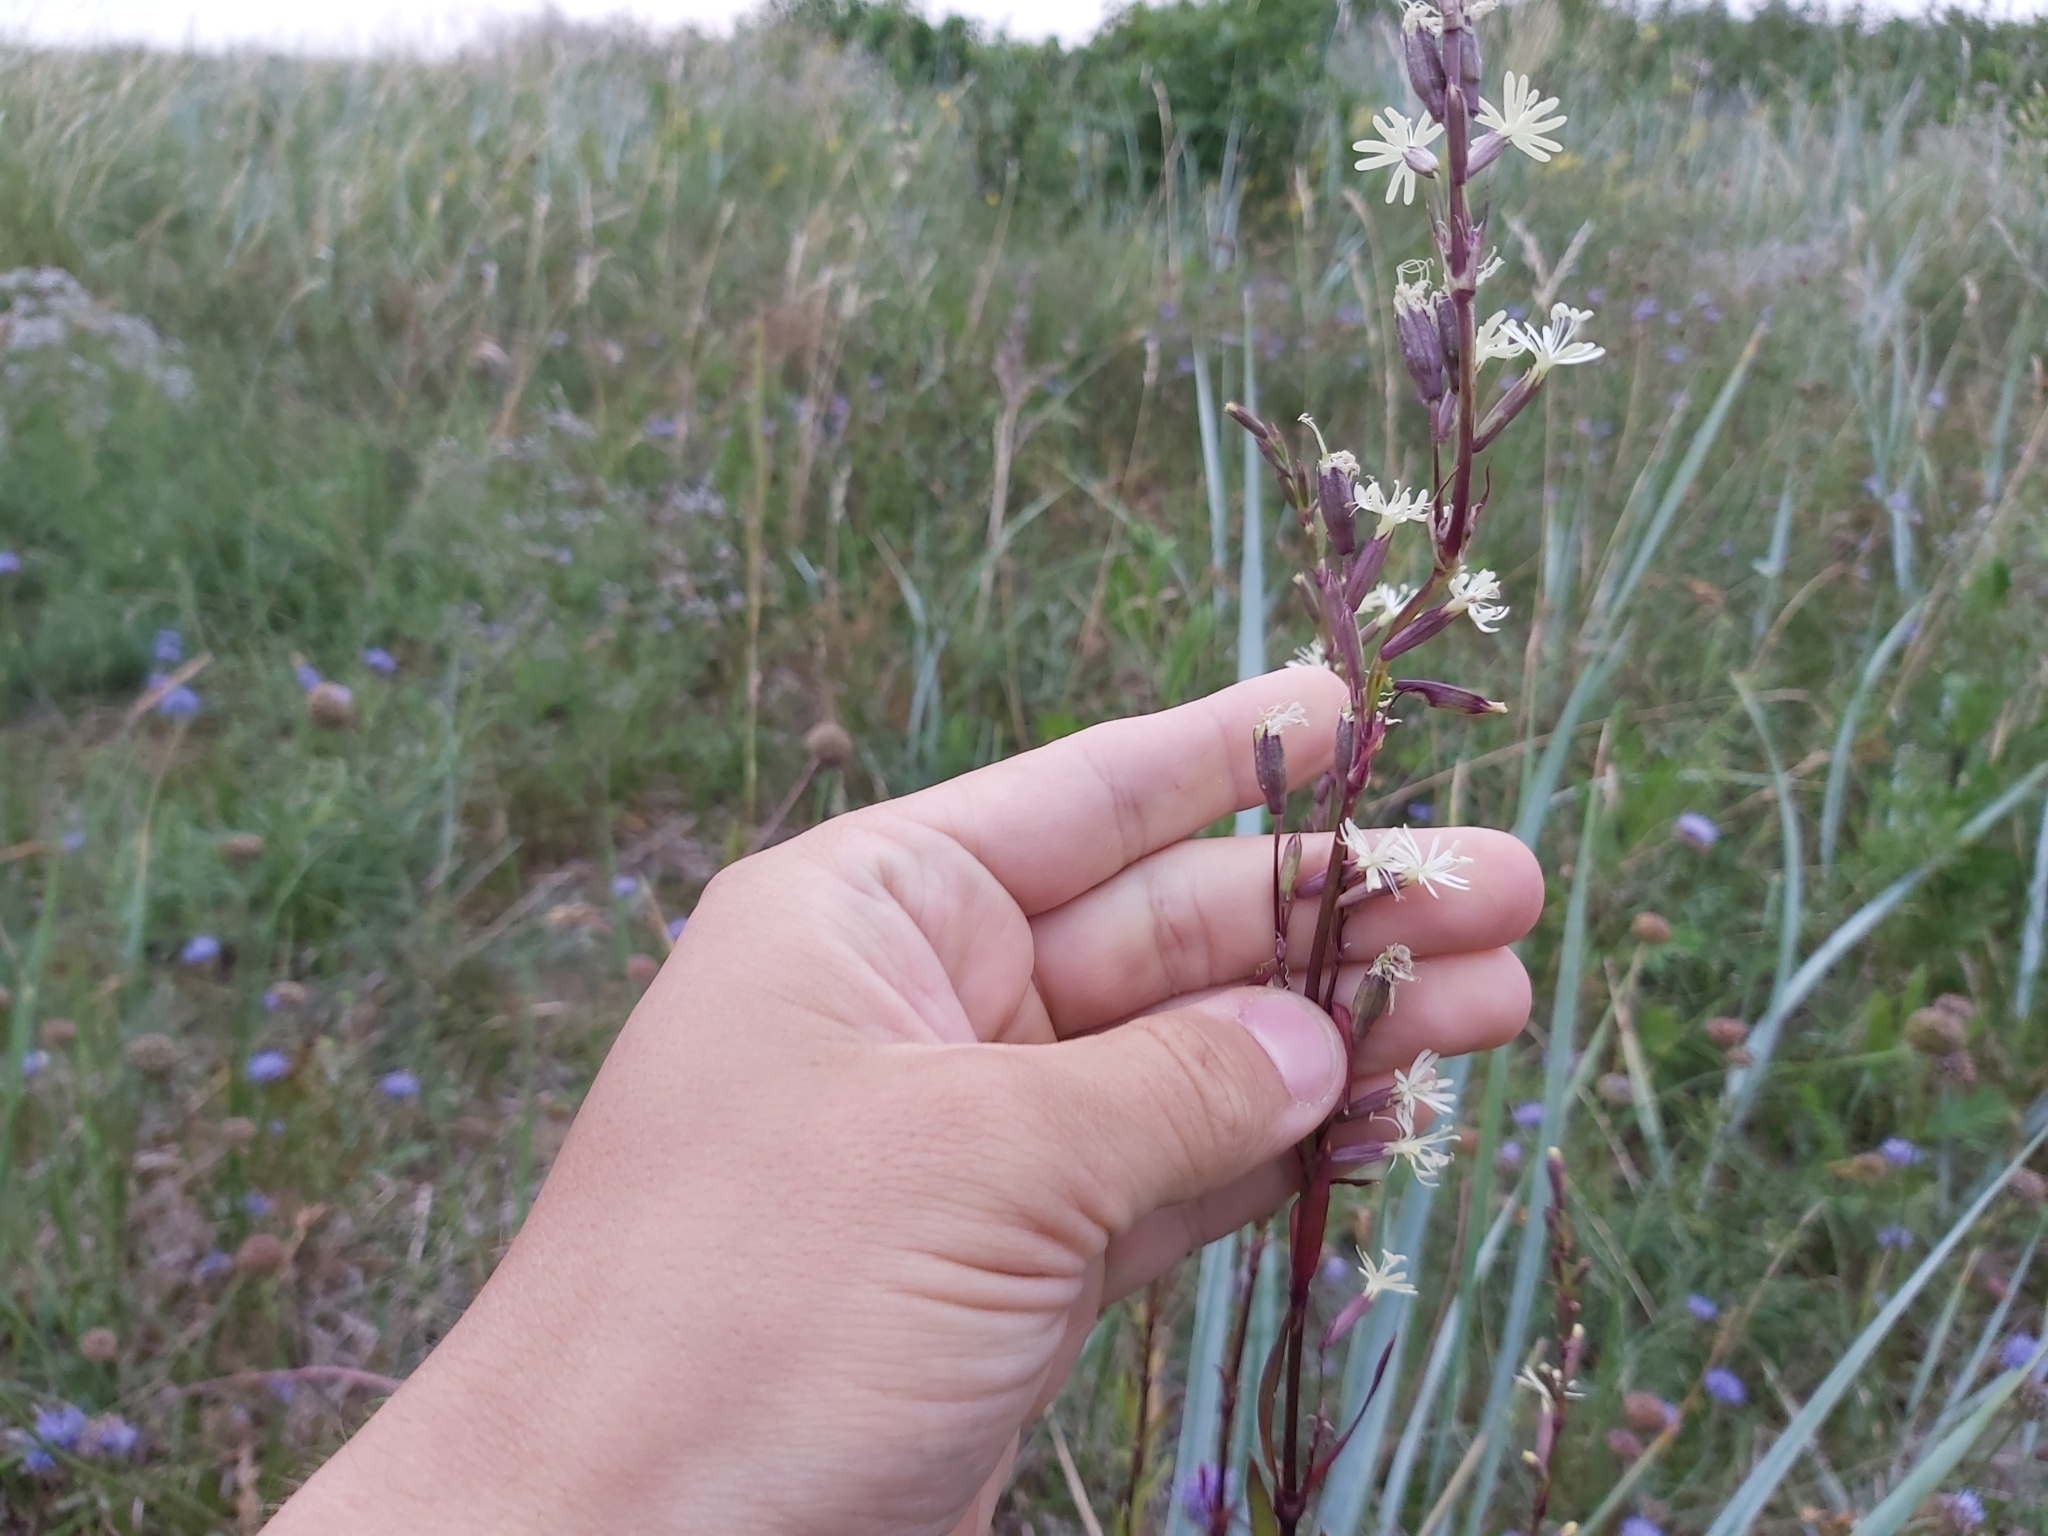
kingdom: Plantae
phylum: Tracheophyta
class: Magnoliopsida
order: Caryophyllales
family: Caryophyllaceae
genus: Silene
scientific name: Silene tatarica
